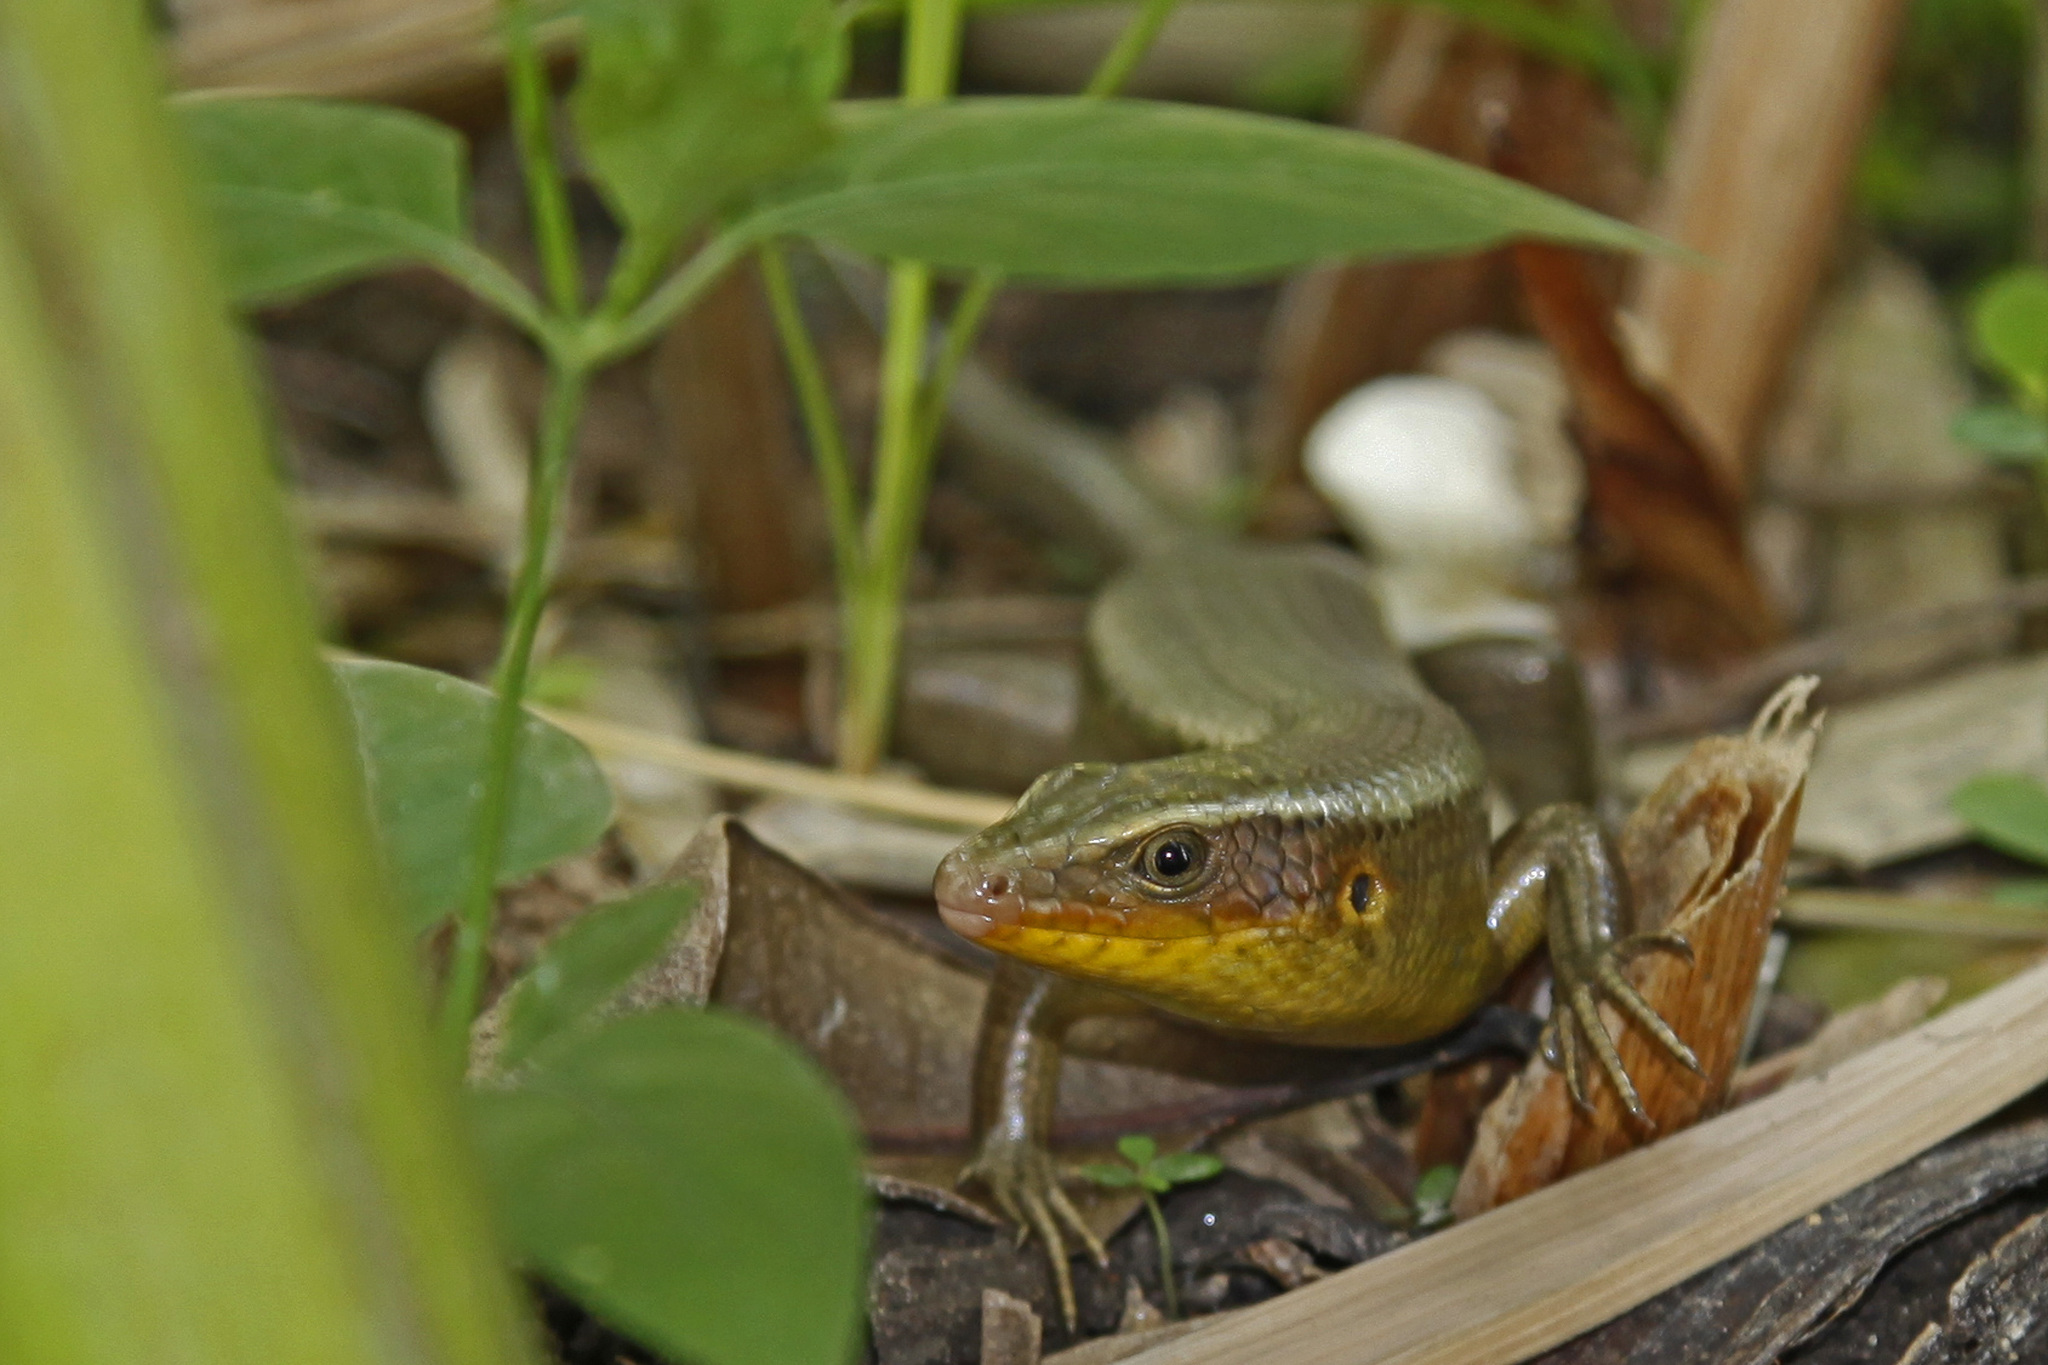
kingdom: Animalia
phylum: Chordata
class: Squamata
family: Scincidae
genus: Eutropis
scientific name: Eutropis multifasciata
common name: Common mabuya
